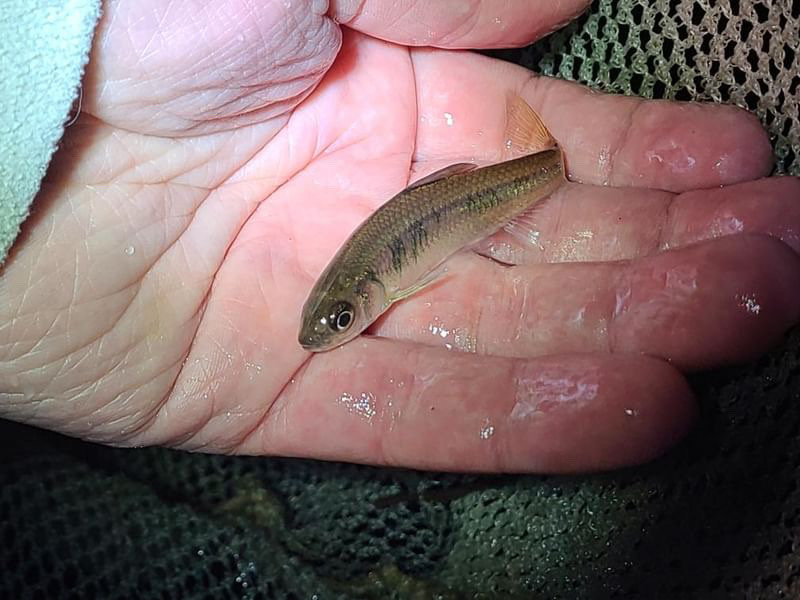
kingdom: Animalia
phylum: Chordata
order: Cypriniformes
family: Cyprinidae
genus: Luxilus
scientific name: Luxilus cornutus
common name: Common shiner
